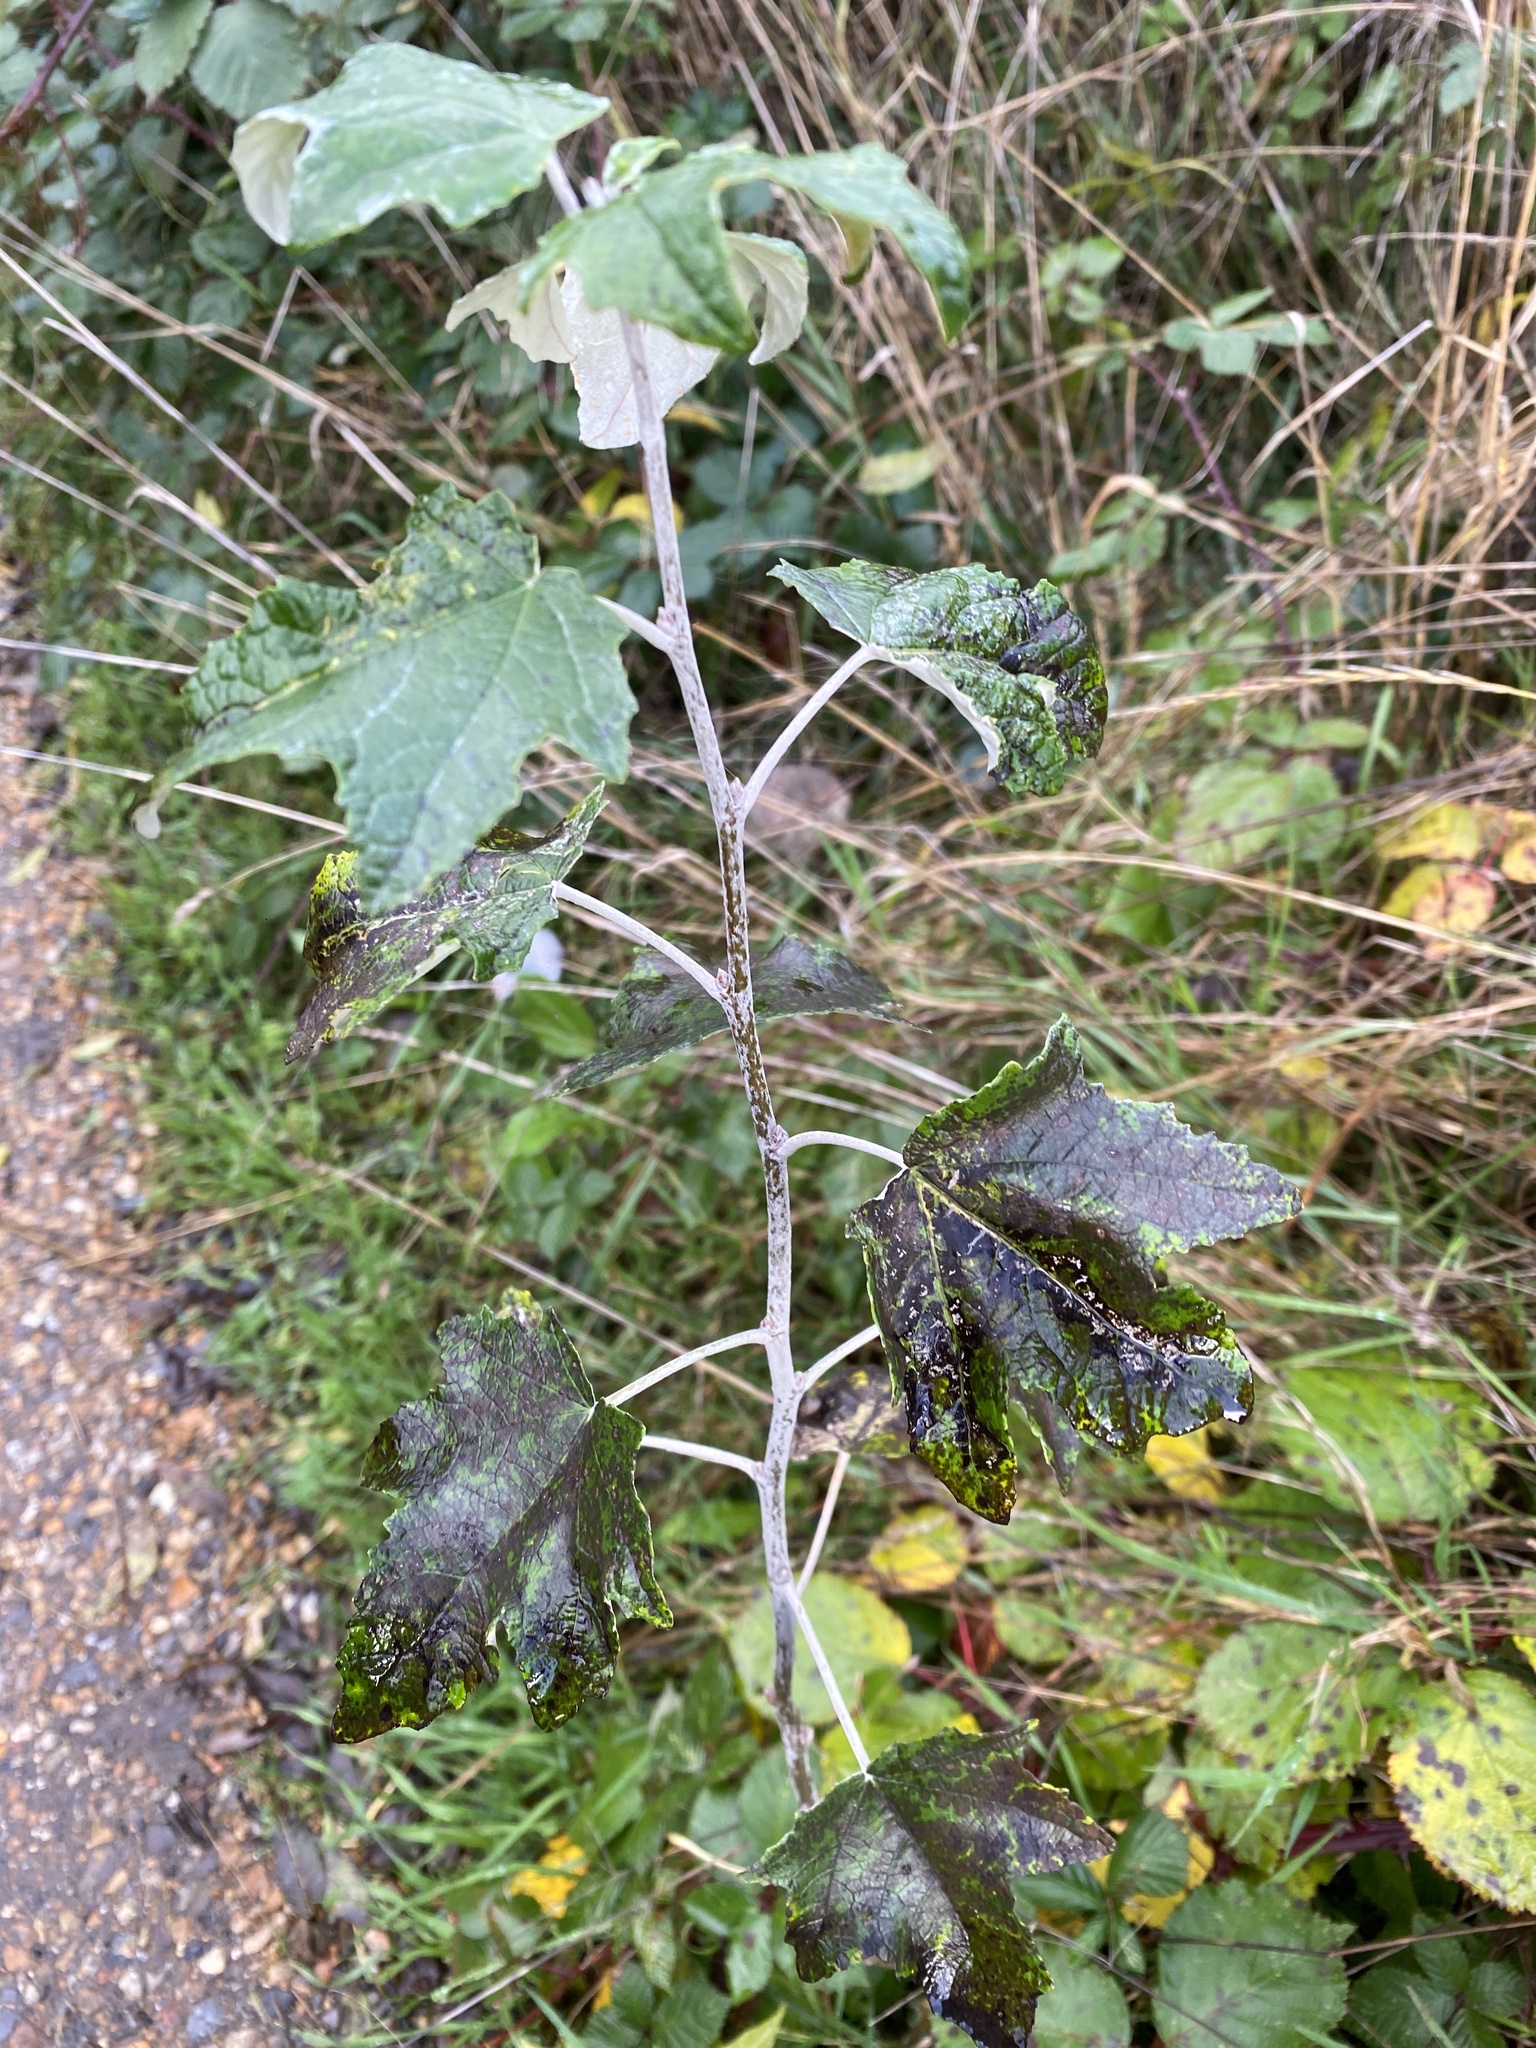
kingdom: Plantae
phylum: Tracheophyta
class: Magnoliopsida
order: Malpighiales
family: Salicaceae
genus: Populus
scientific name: Populus alba
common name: White poplar
